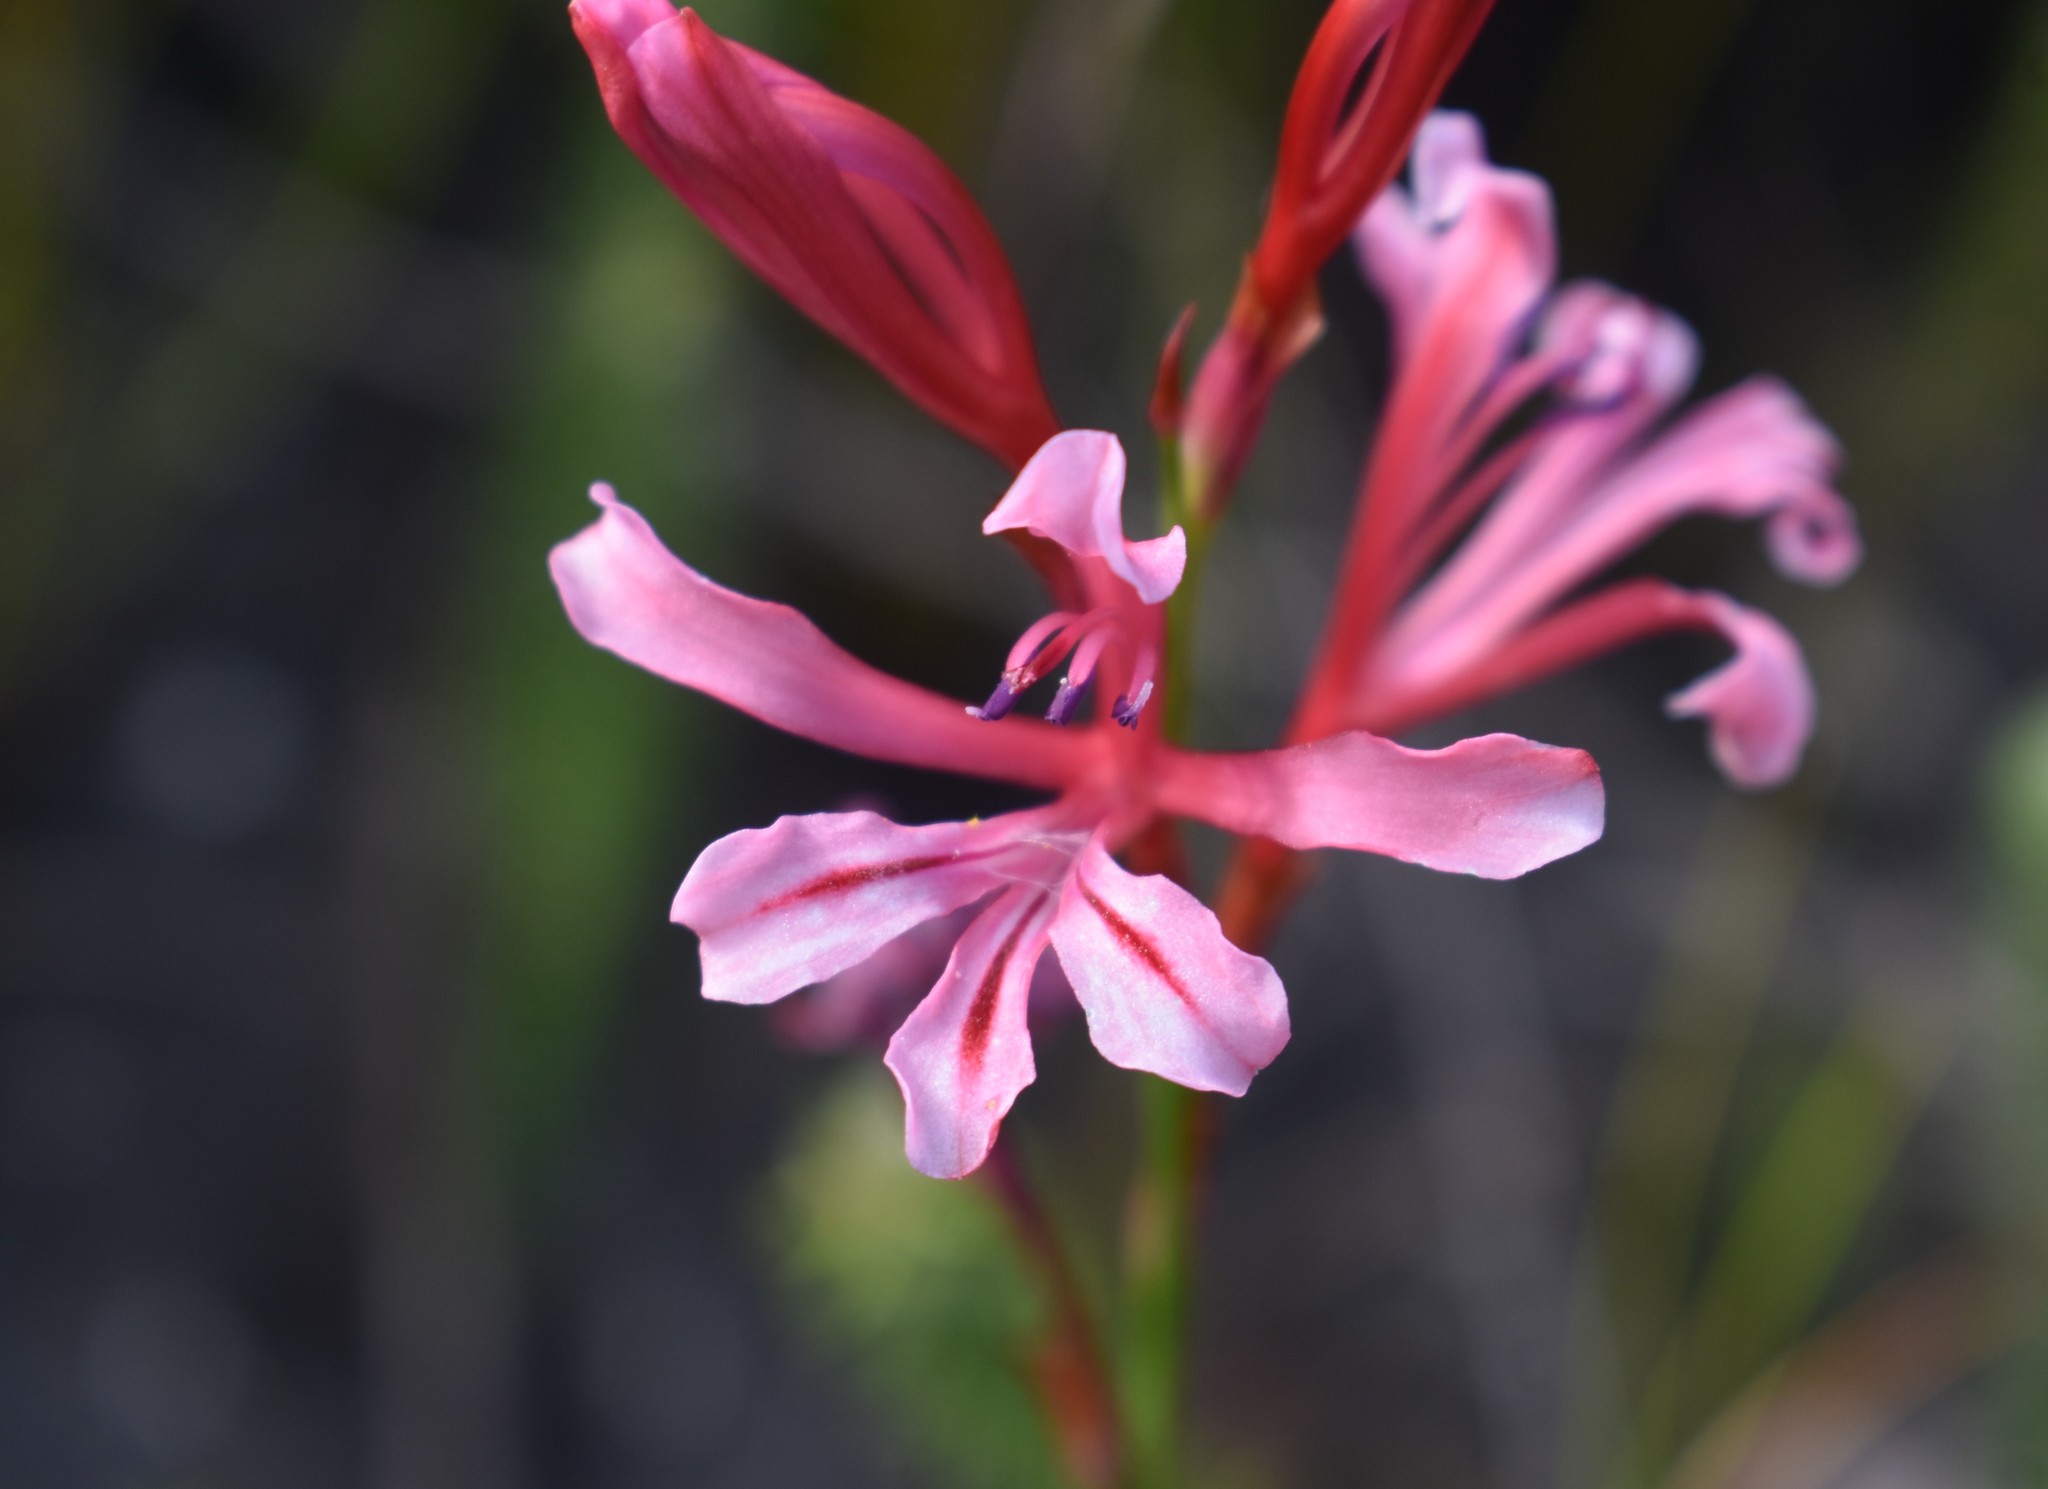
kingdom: Plantae
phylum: Tracheophyta
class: Liliopsida
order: Asparagales
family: Iridaceae
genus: Tritoniopsis
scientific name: Tritoniopsis ramosa
